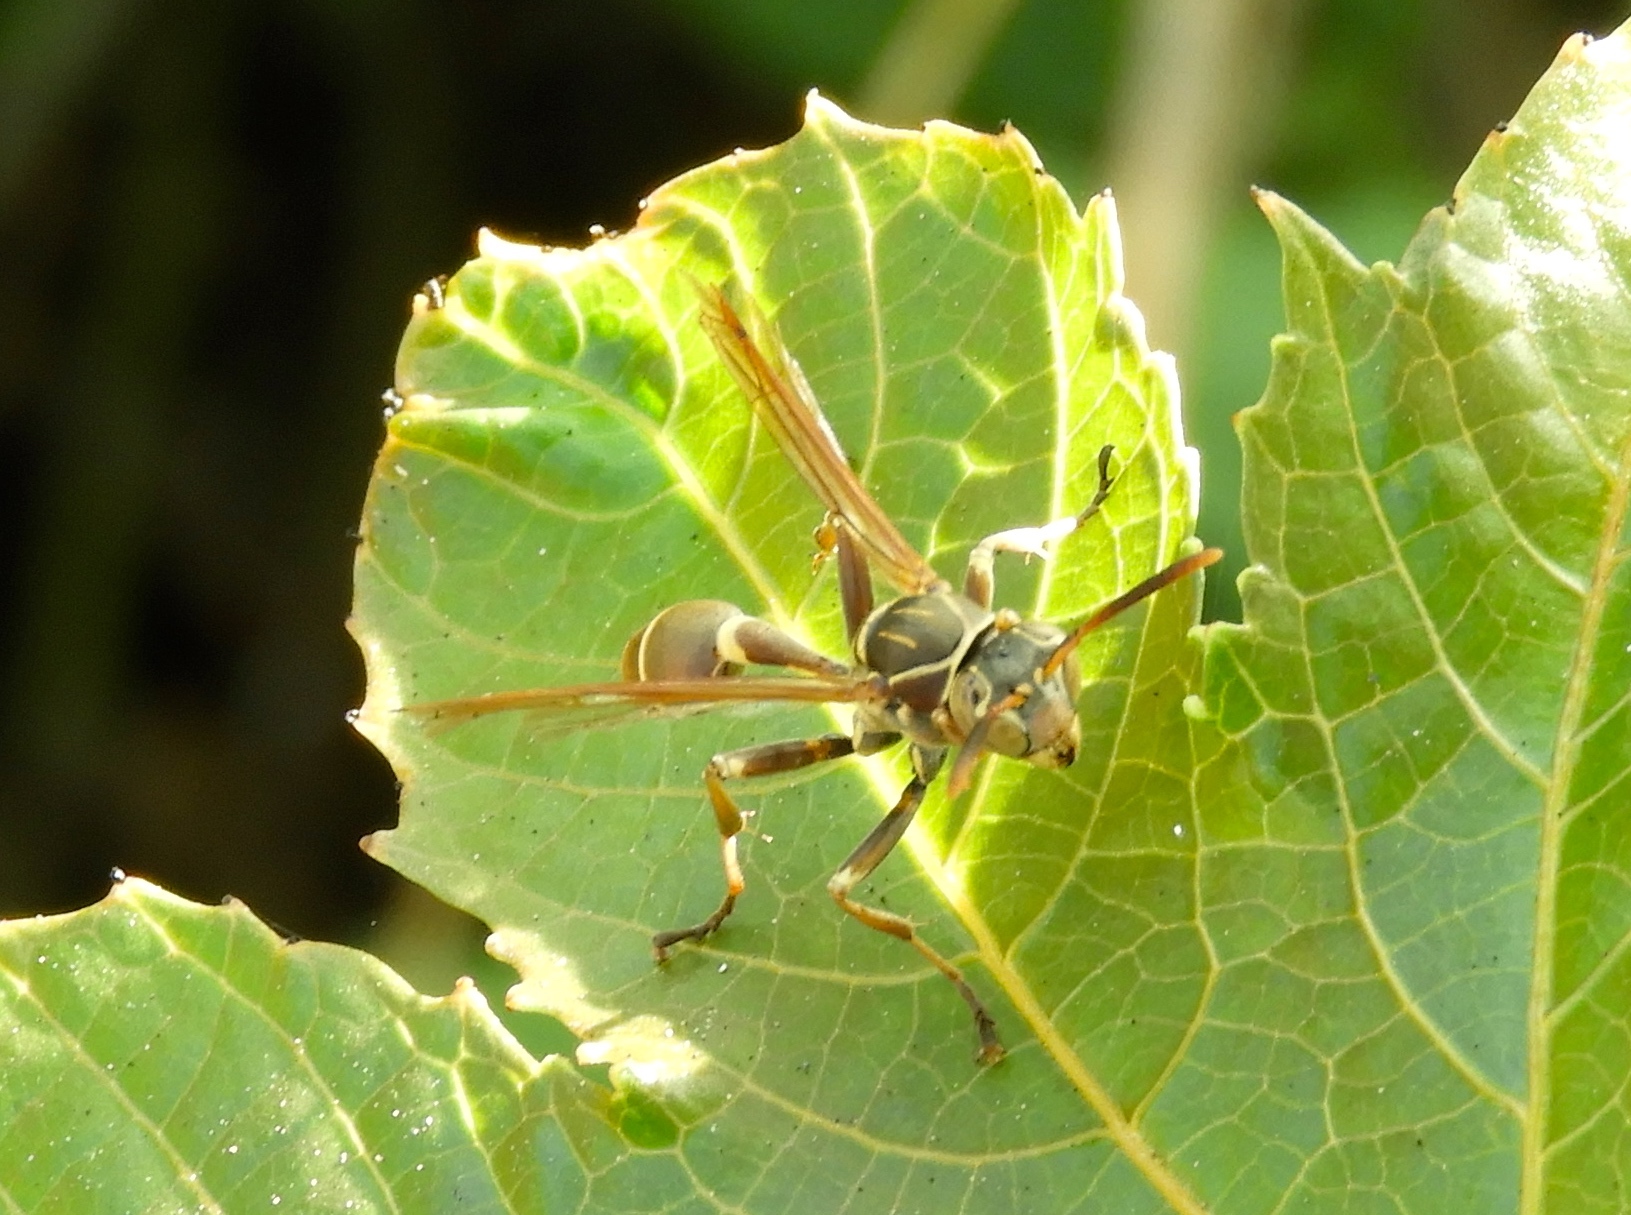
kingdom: Animalia
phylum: Arthropoda
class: Insecta
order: Hymenoptera
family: Vespidae
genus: Mischocyttarus
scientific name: Mischocyttarus mexicanus
